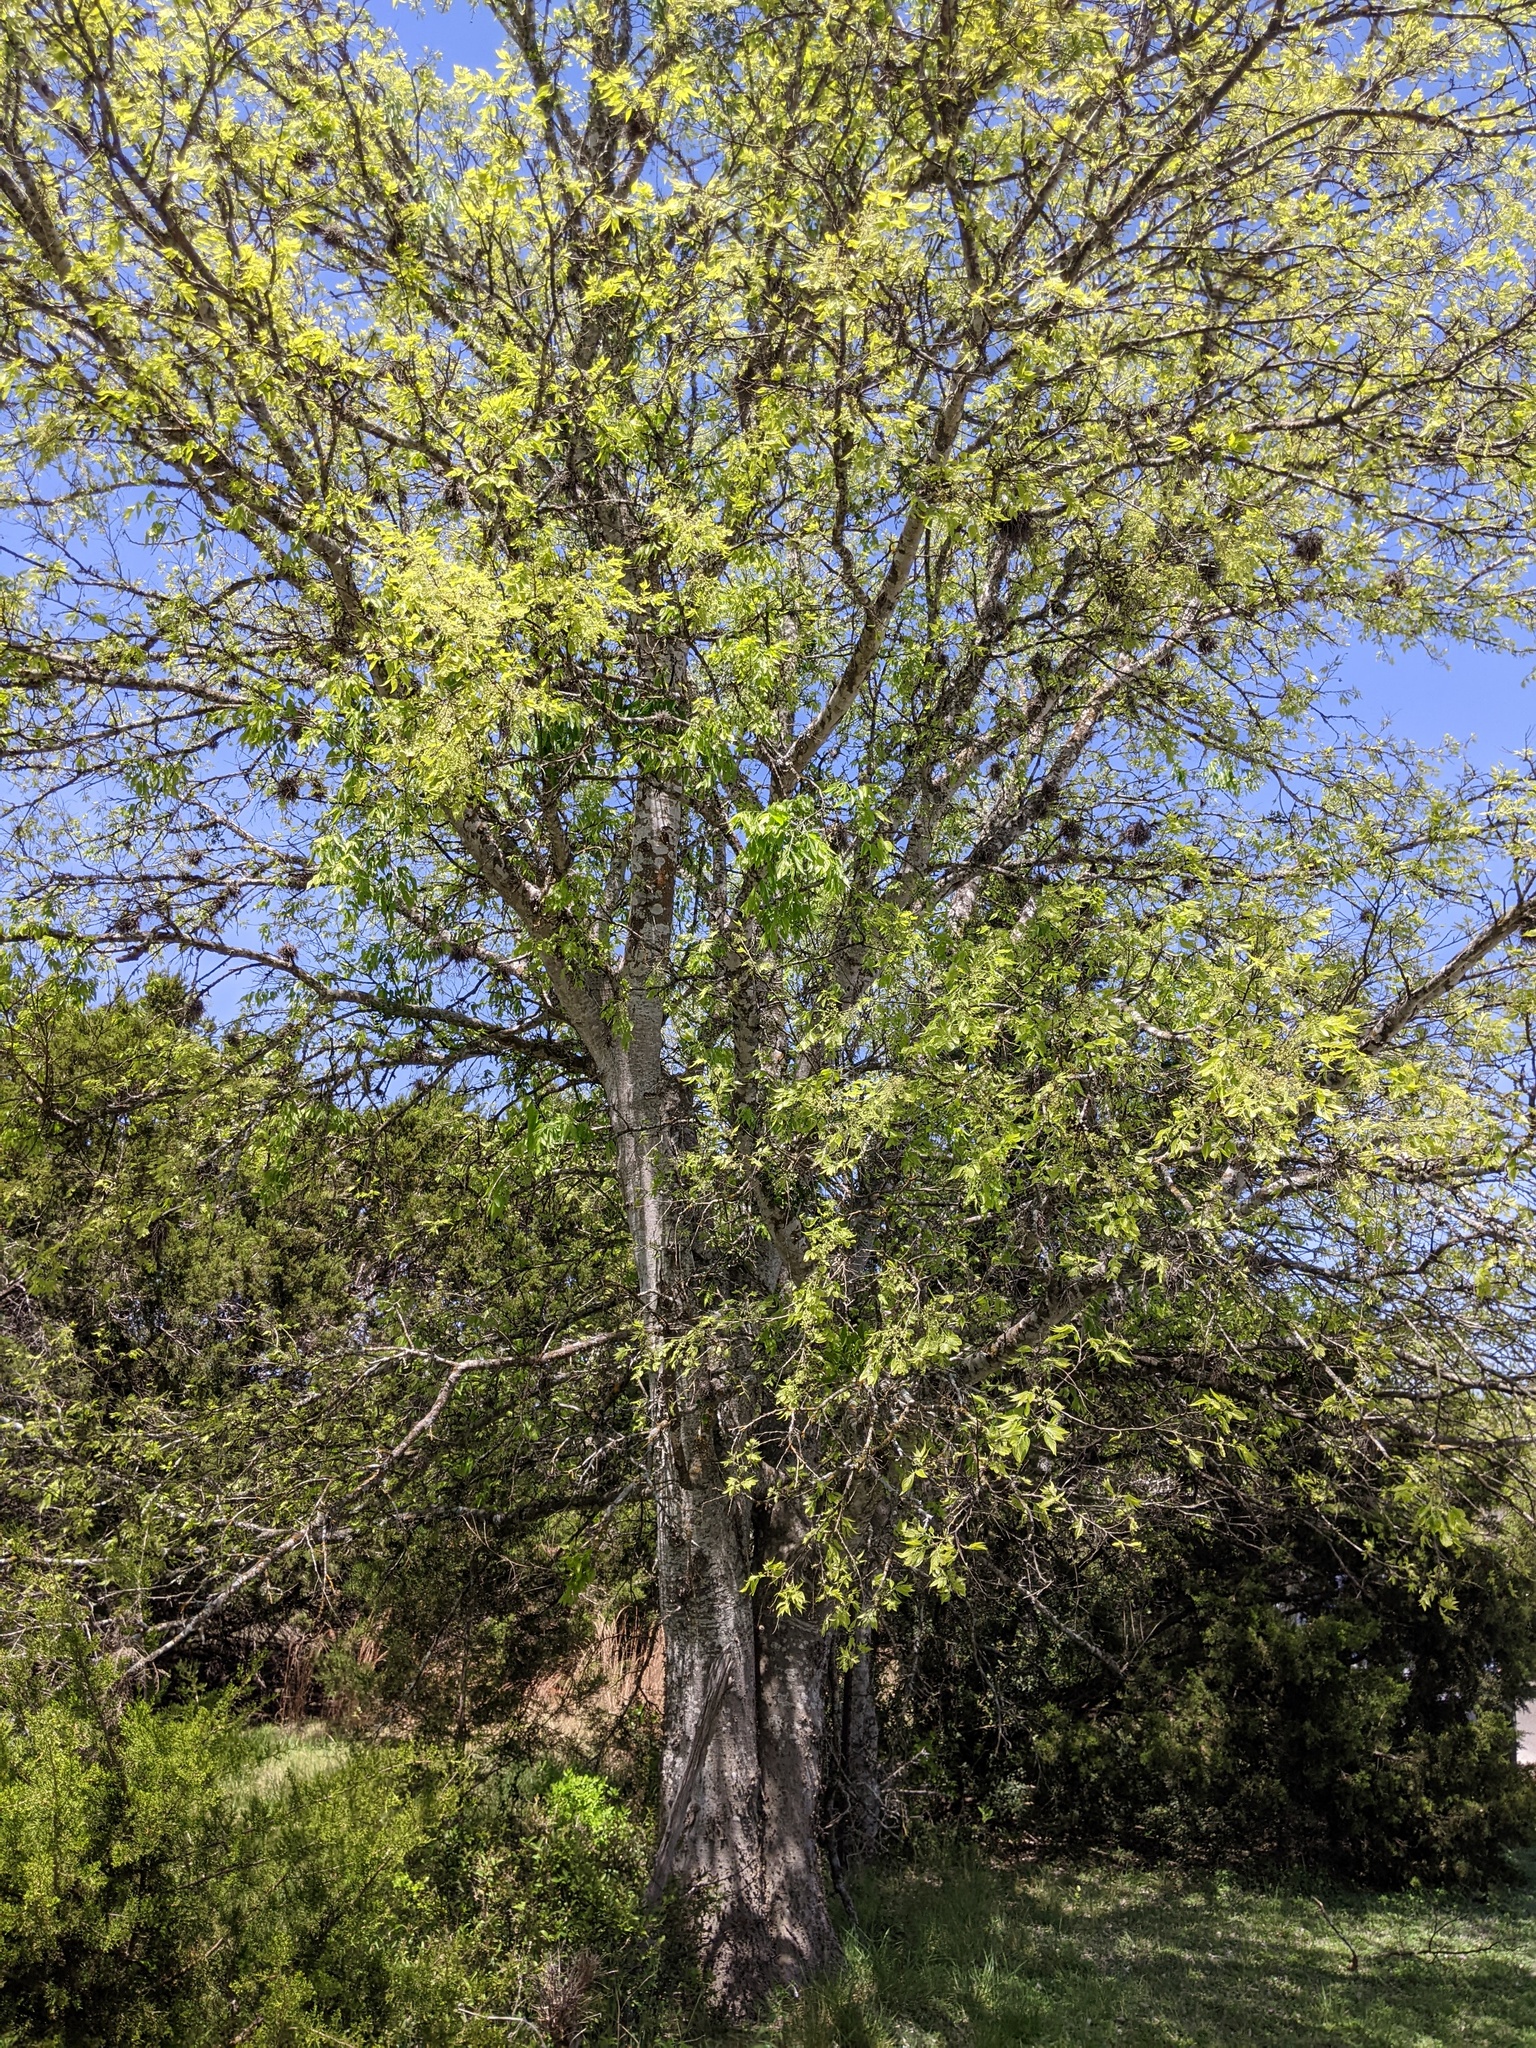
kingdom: Plantae
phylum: Tracheophyta
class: Magnoliopsida
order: Rosales
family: Cannabaceae
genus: Celtis
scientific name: Celtis laevigata
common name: Sugarberry
